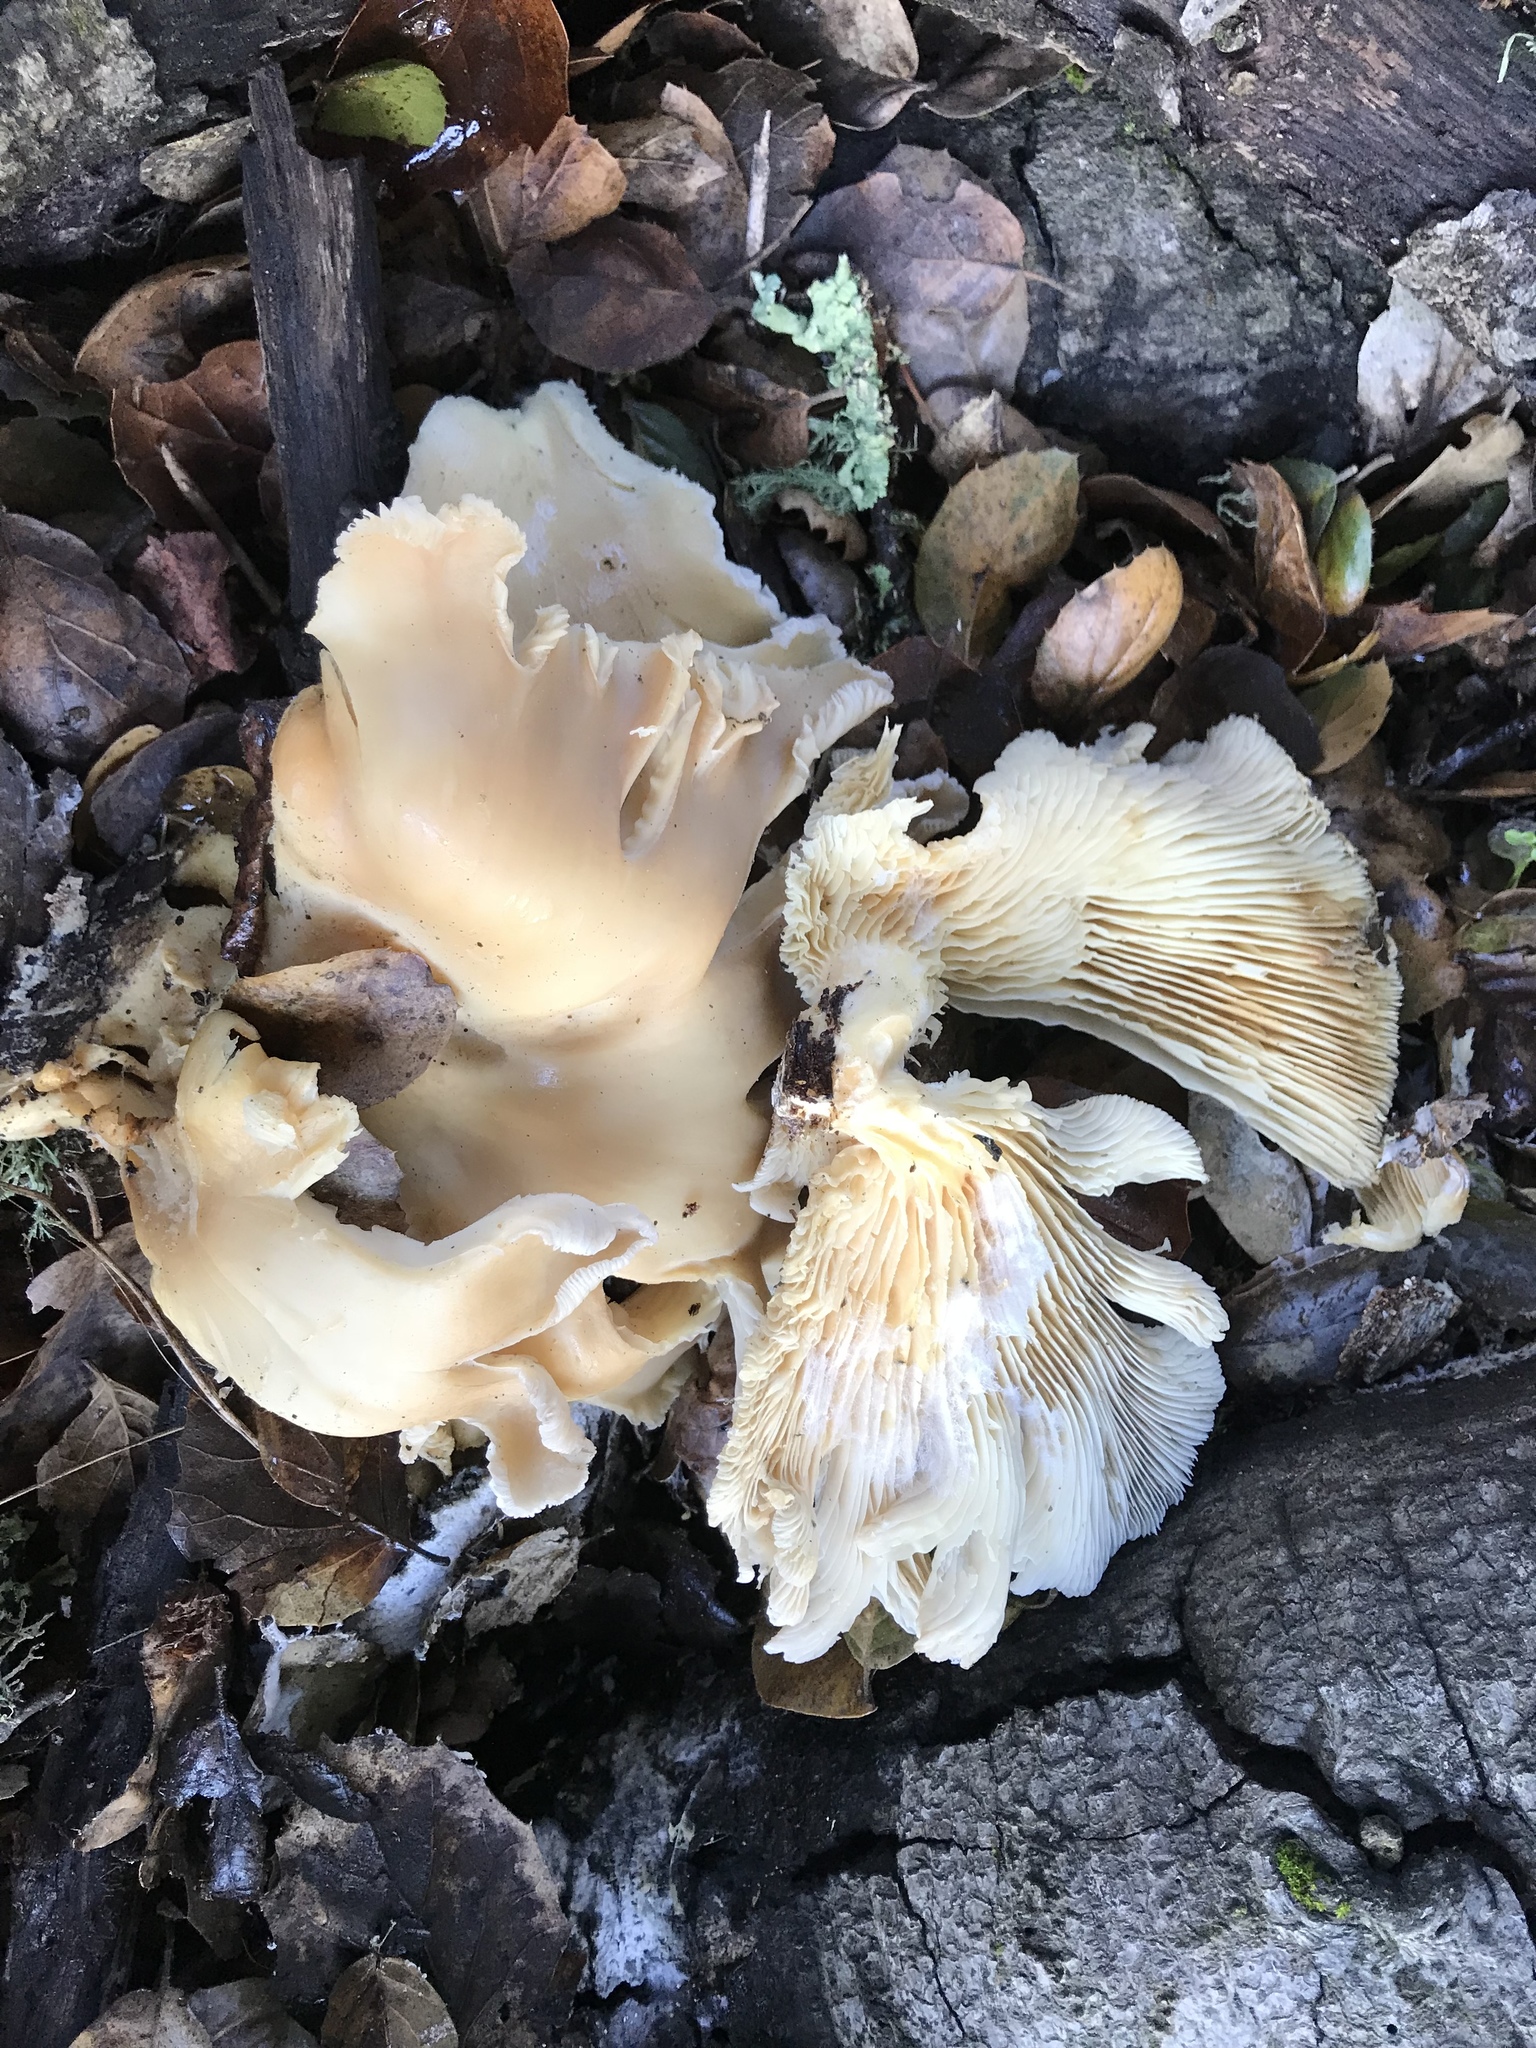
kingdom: Fungi
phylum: Basidiomycota
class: Agaricomycetes
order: Agaricales
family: Pleurotaceae
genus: Pleurotus
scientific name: Pleurotus ostreatus
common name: Oyster mushroom
